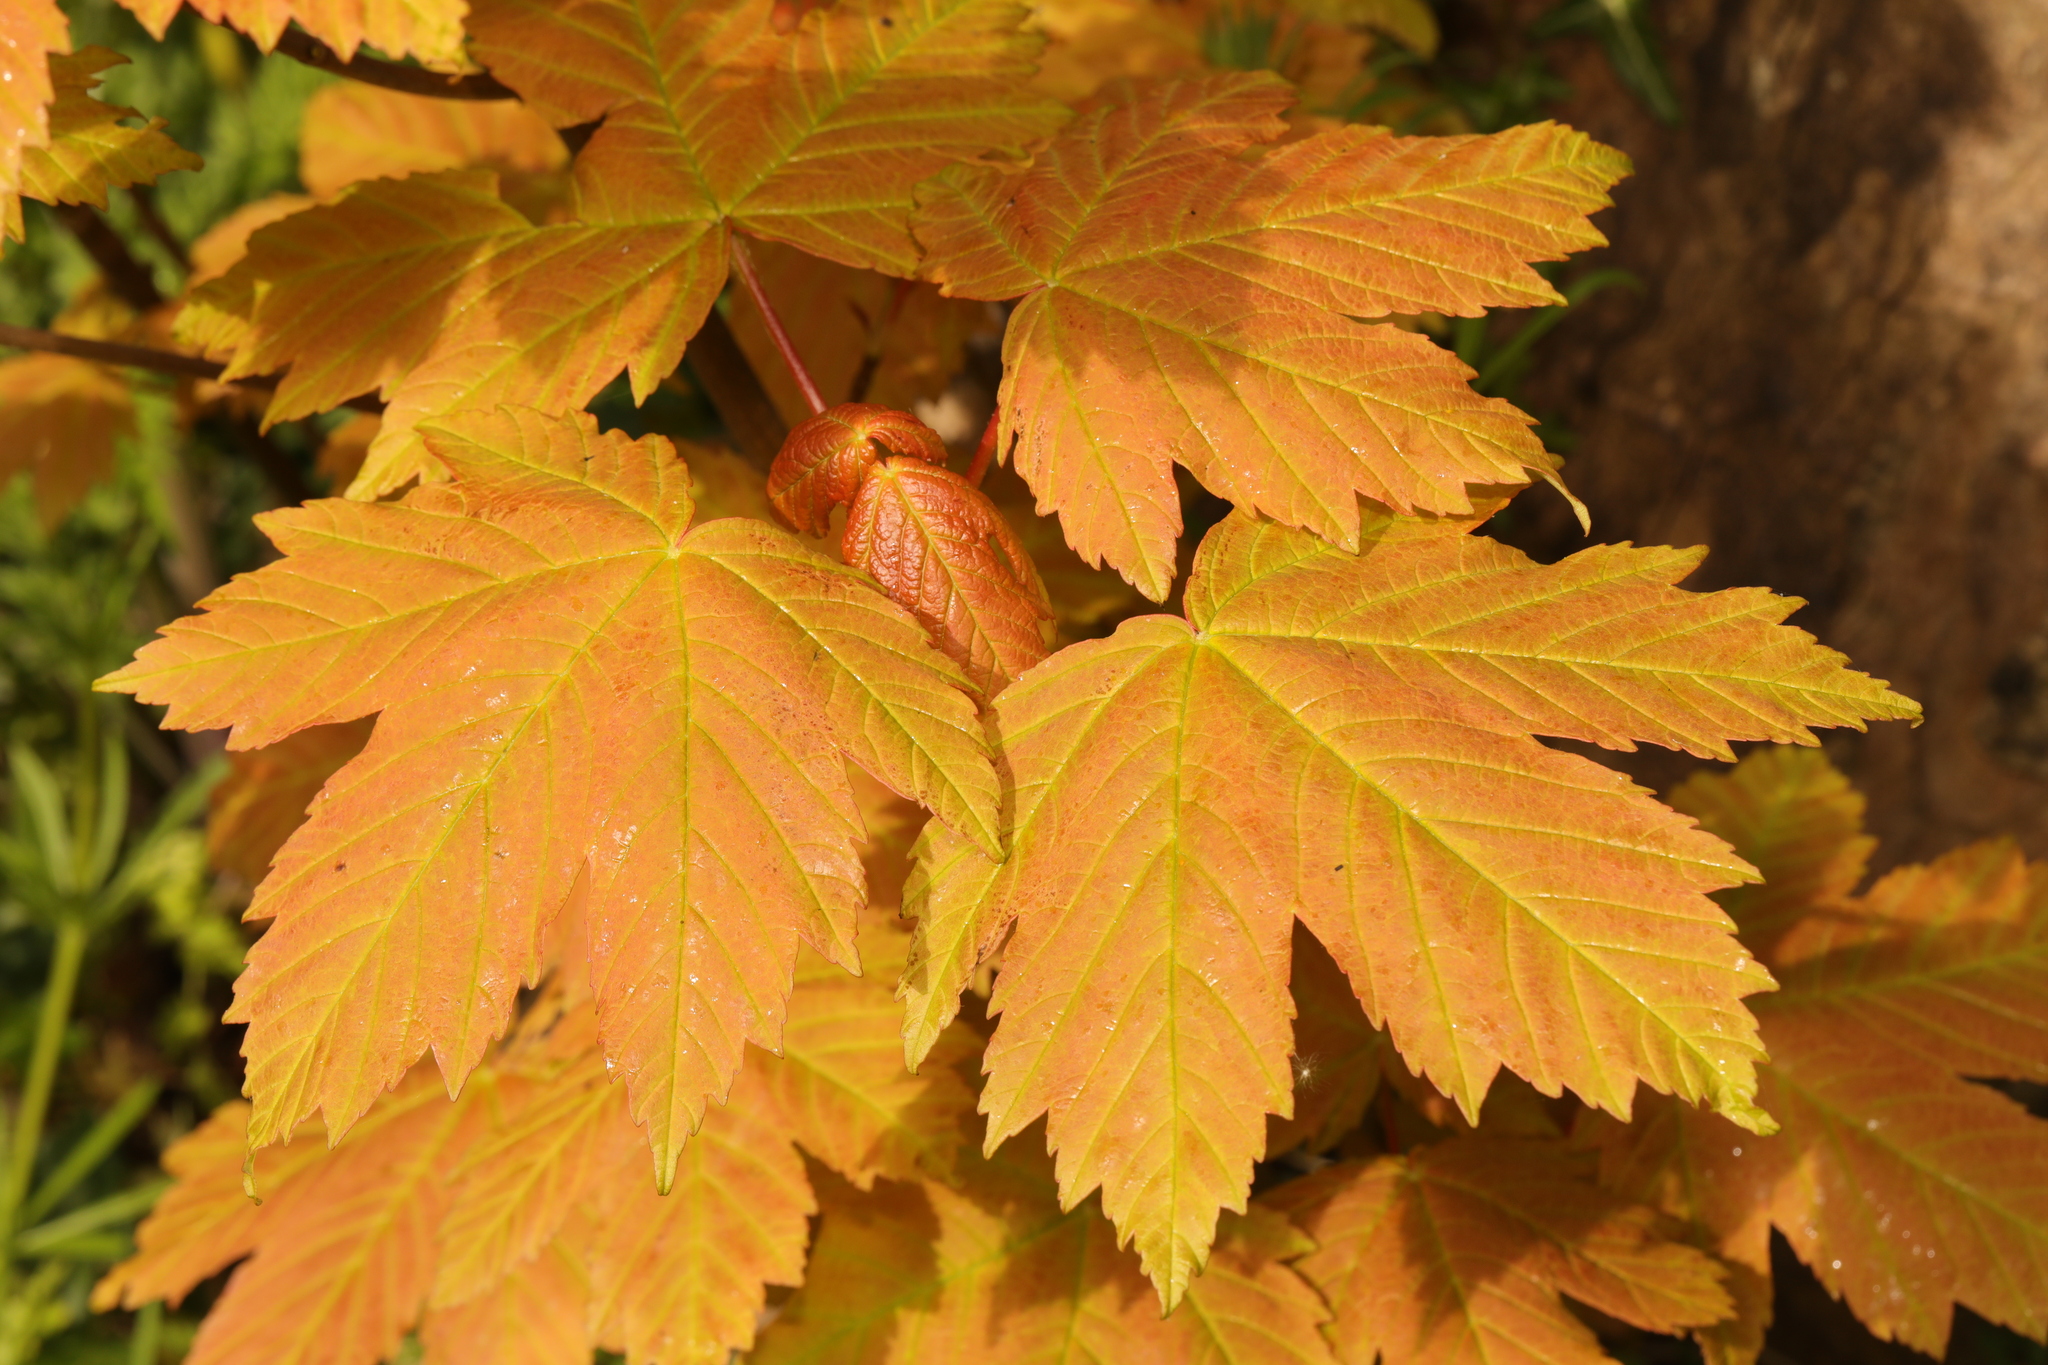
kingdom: Plantae
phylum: Tracheophyta
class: Magnoliopsida
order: Sapindales
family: Sapindaceae
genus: Acer
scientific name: Acer pseudoplatanus
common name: Sycamore
